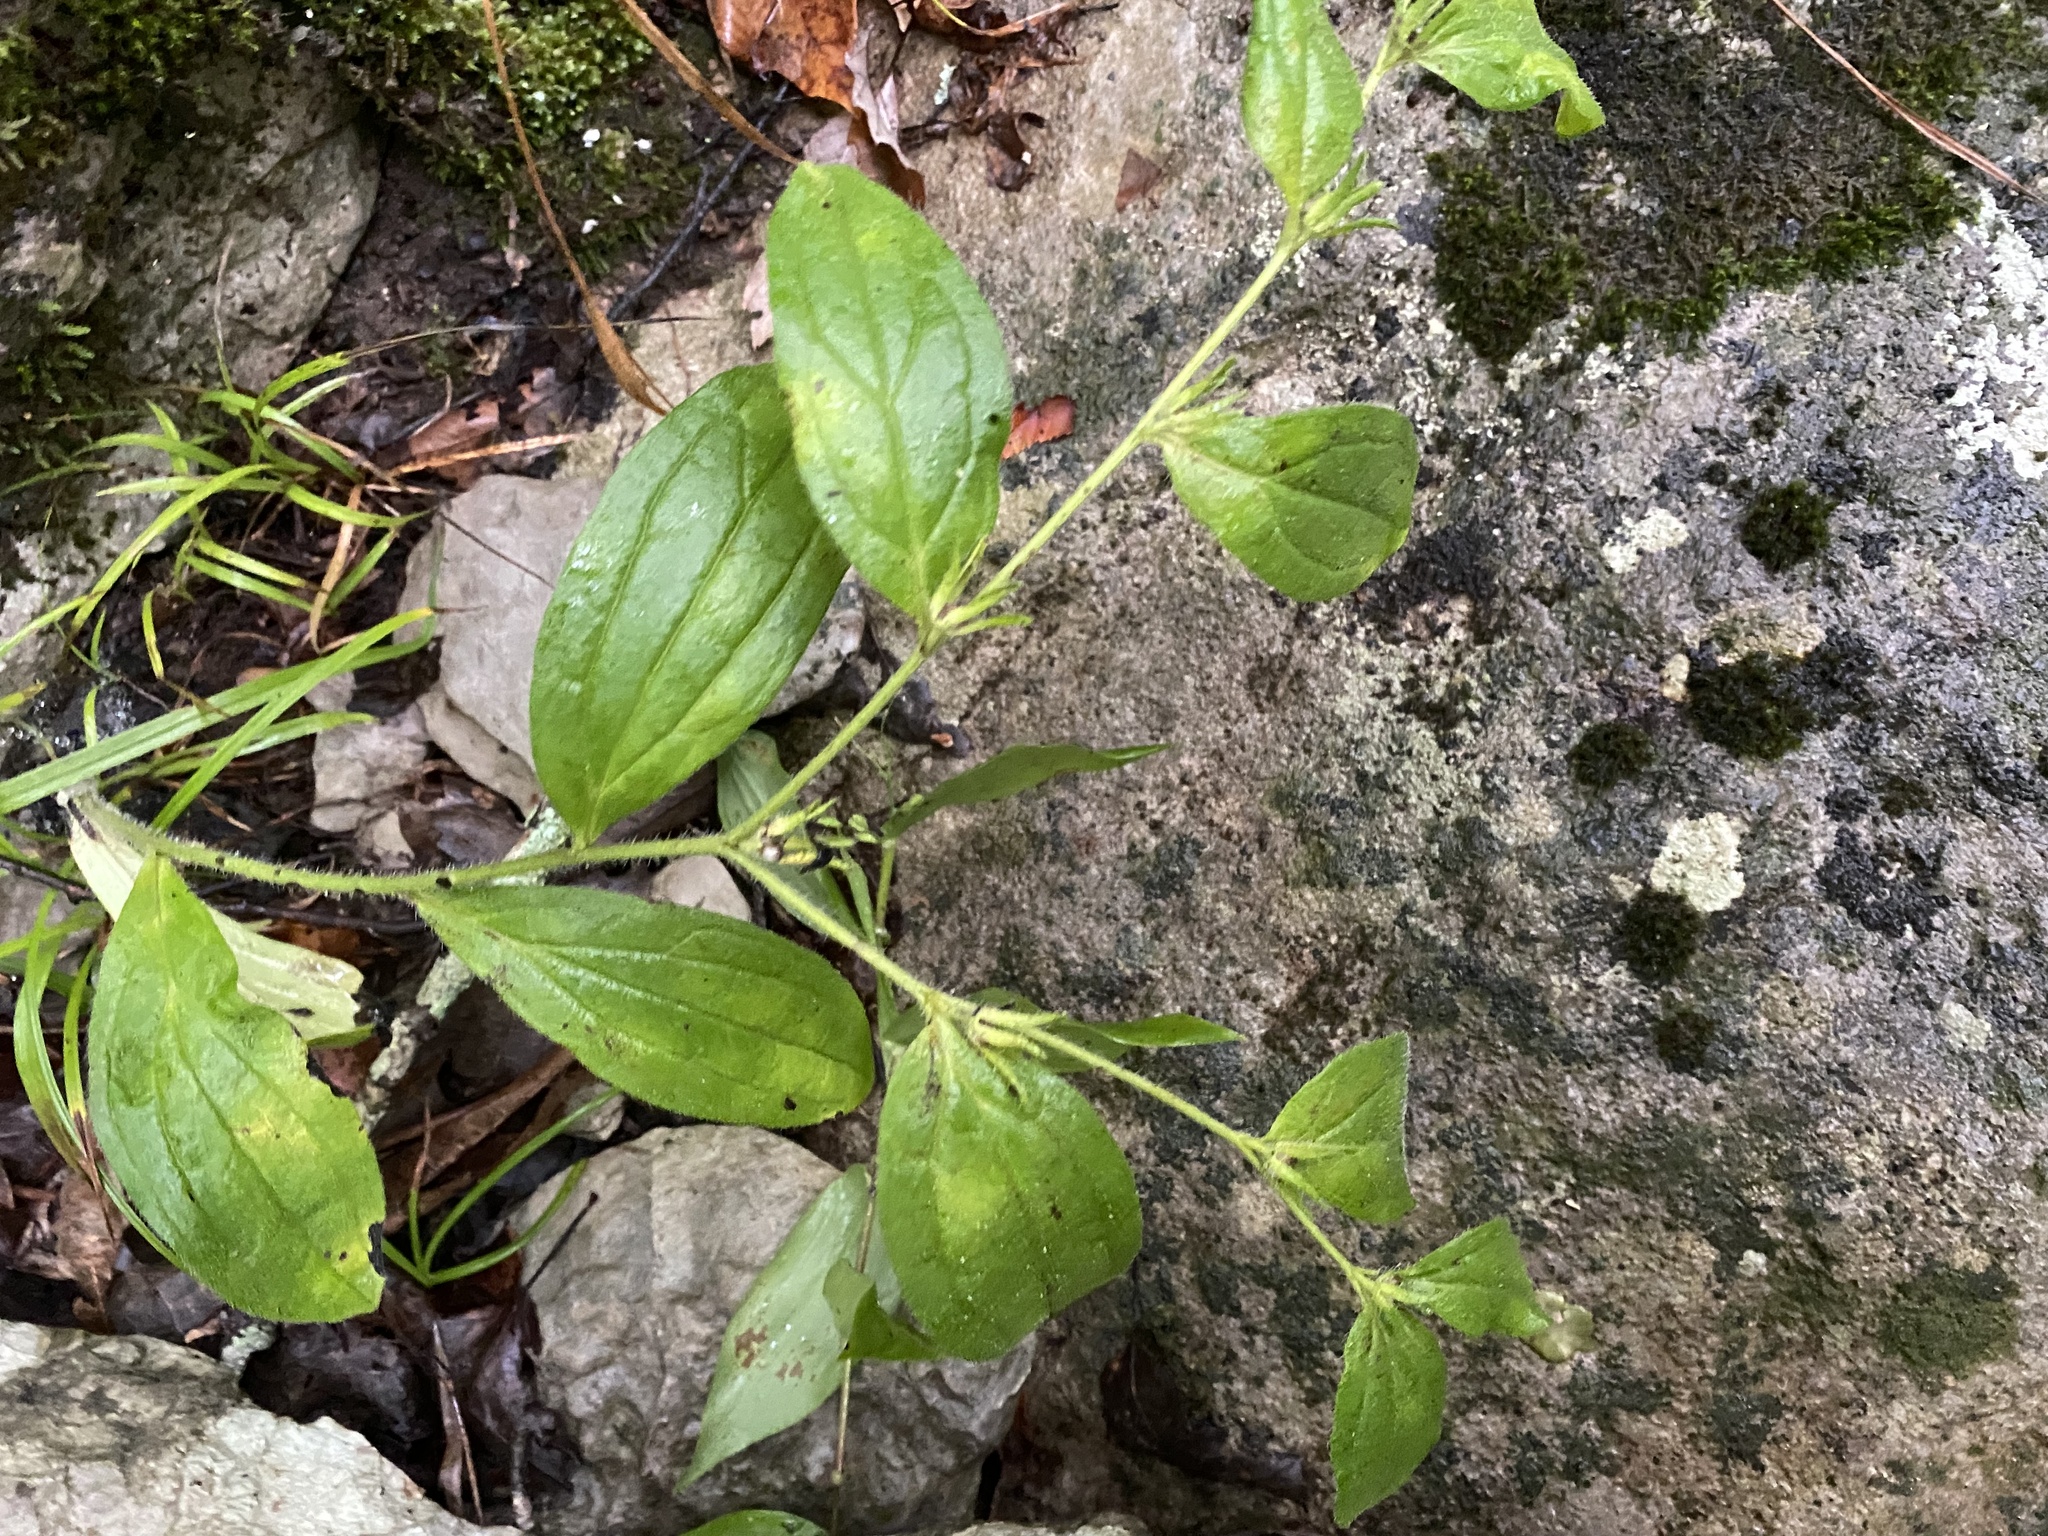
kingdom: Plantae
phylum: Tracheophyta
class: Magnoliopsida
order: Boraginales
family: Boraginaceae
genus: Lithospermum
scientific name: Lithospermum tuberosum
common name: Southern stoneseed
